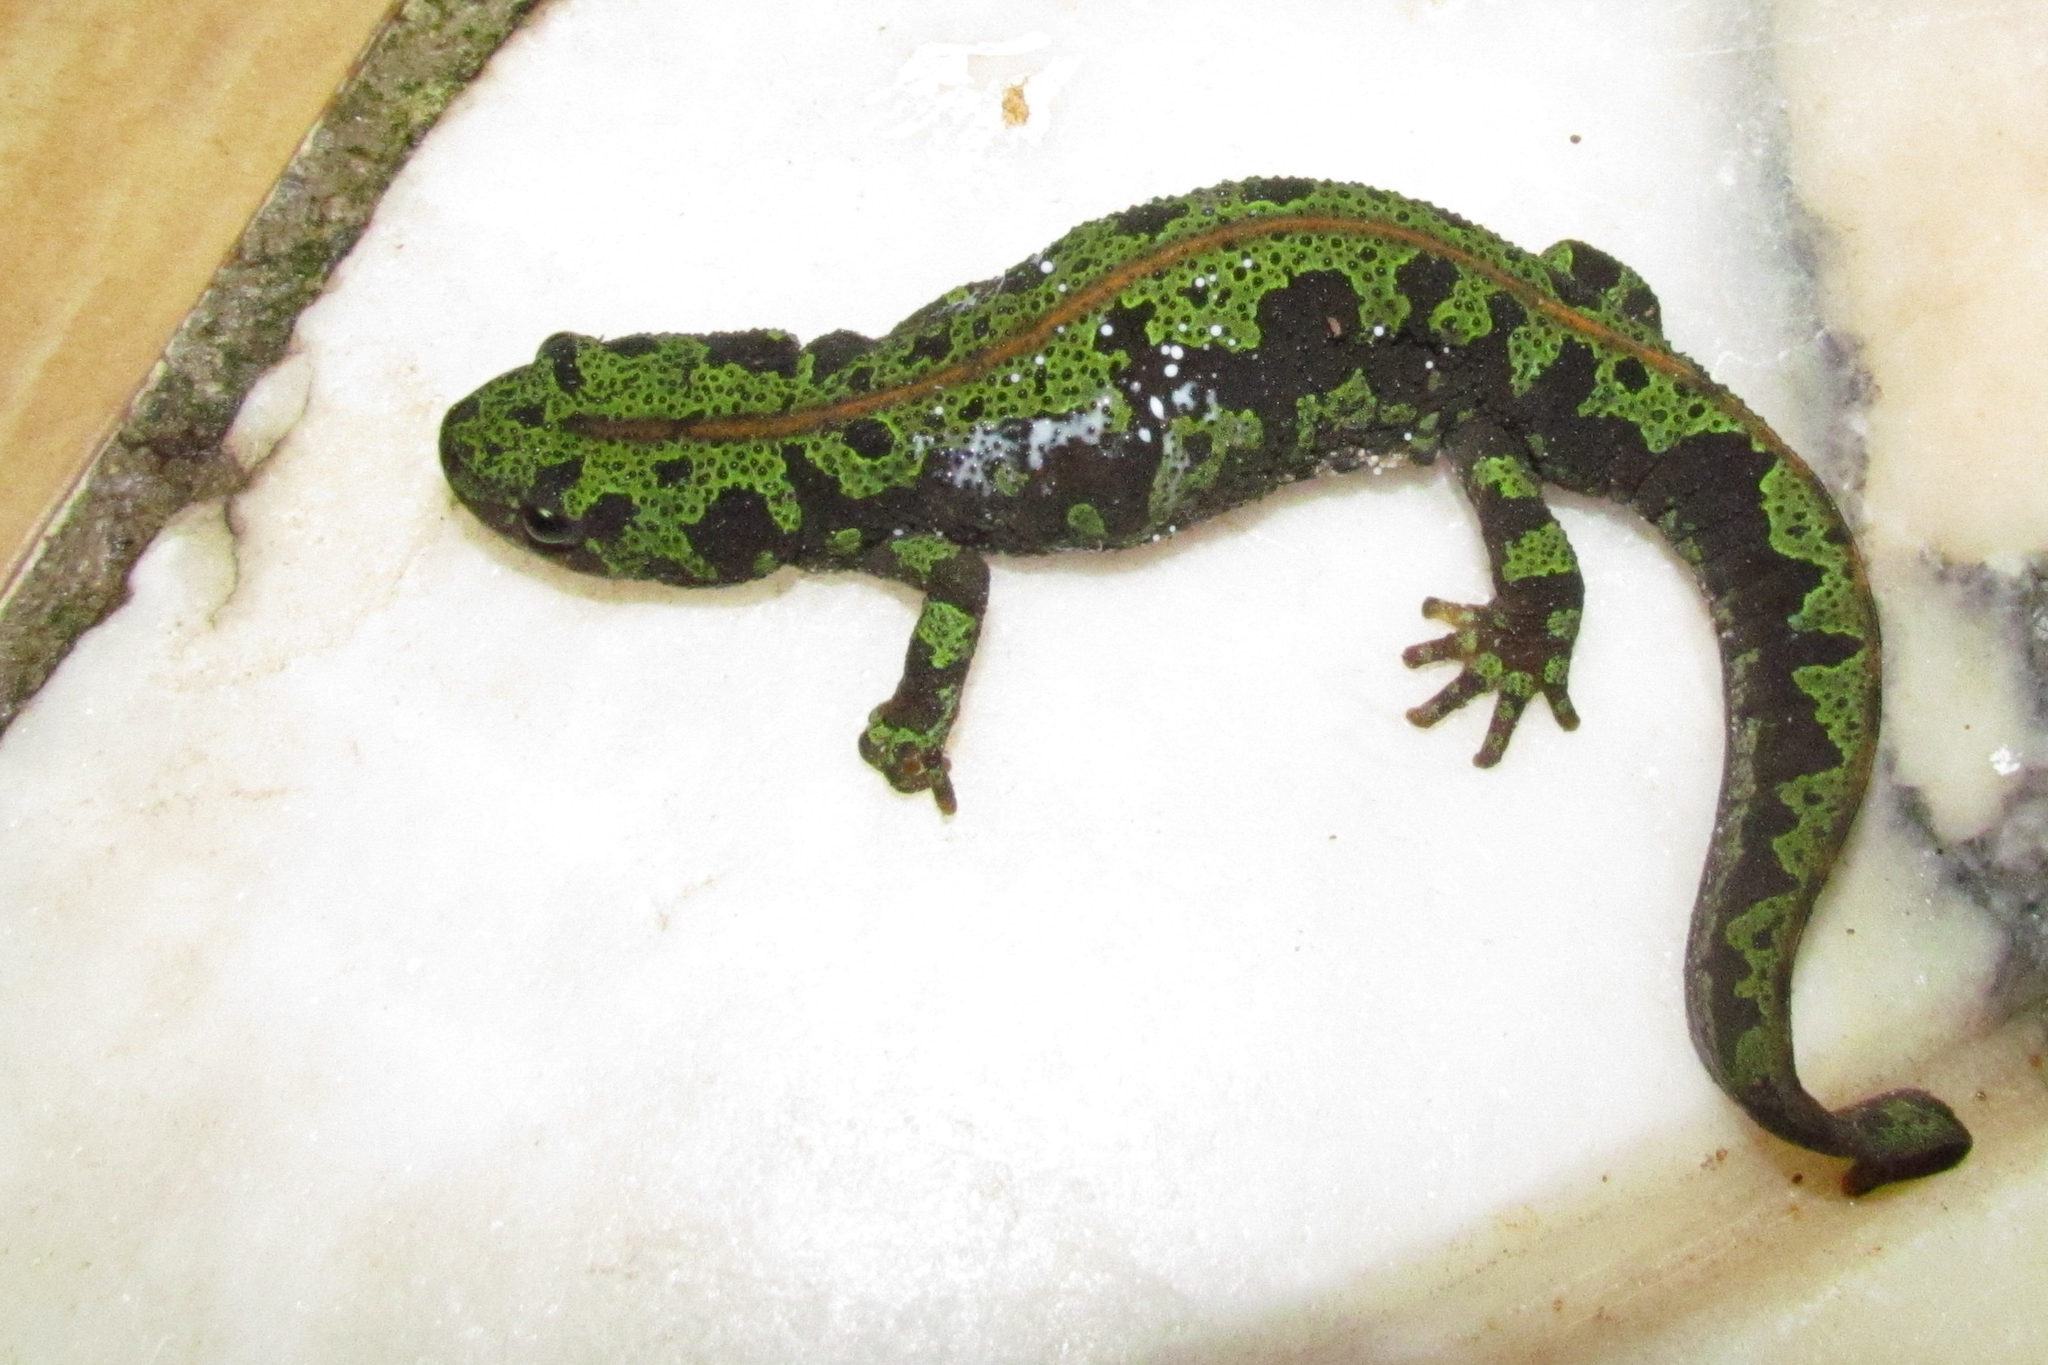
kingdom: Animalia
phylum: Chordata
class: Amphibia
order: Caudata
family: Salamandridae
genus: Triturus
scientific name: Triturus marmoratus
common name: Marbled newt
